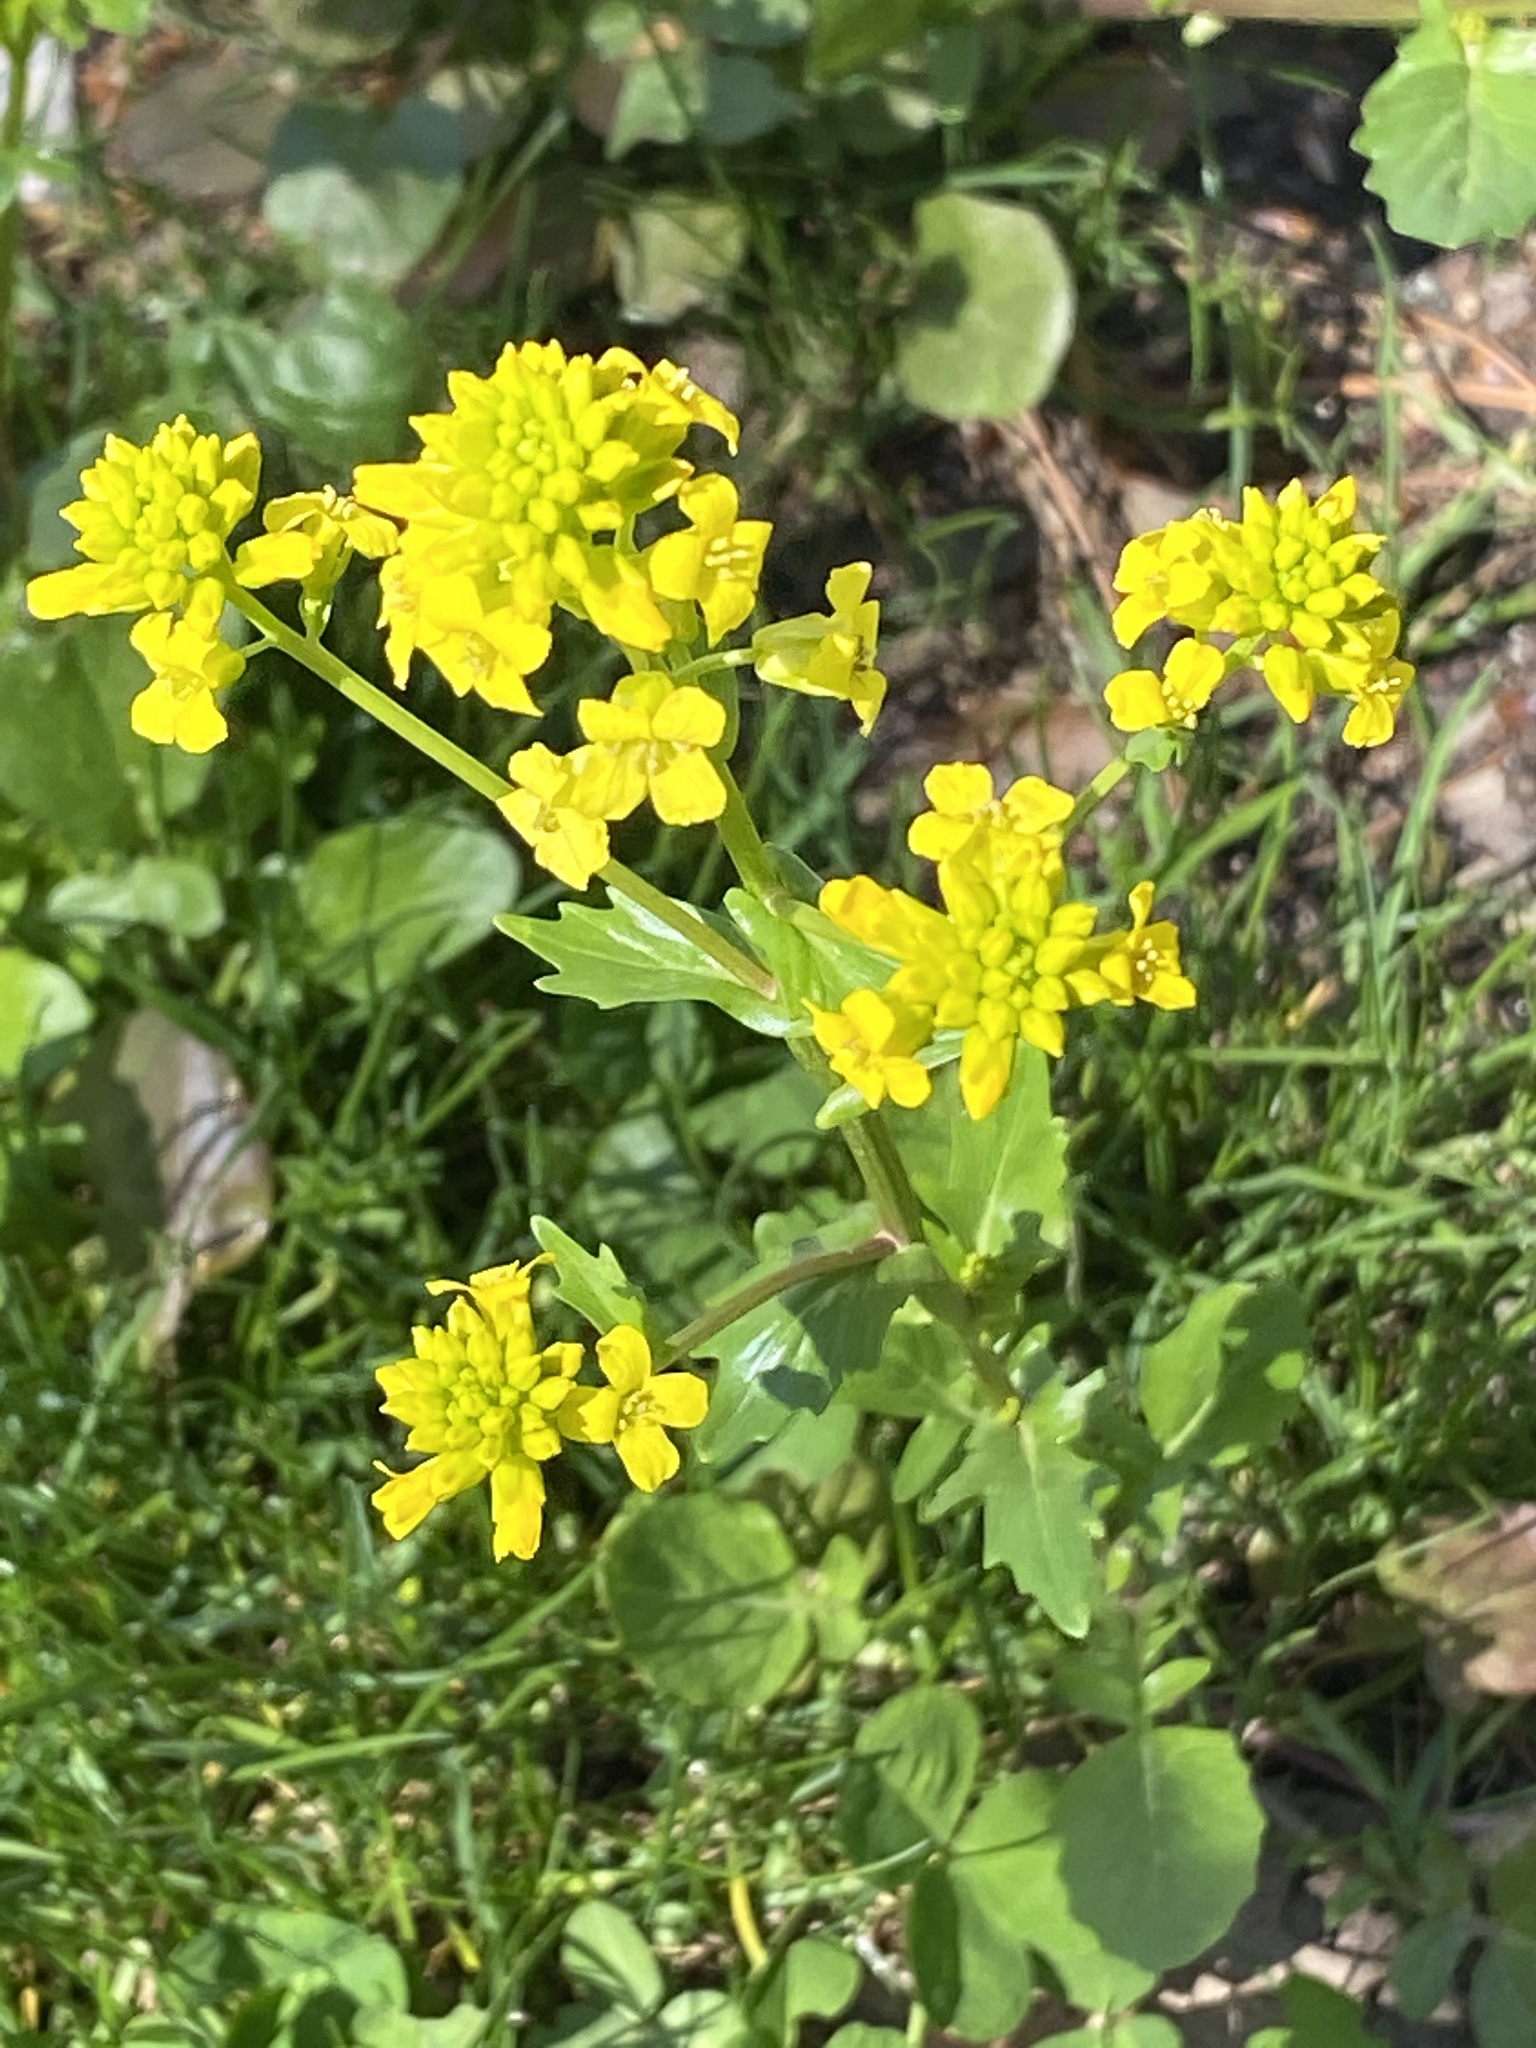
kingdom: Plantae
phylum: Tracheophyta
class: Magnoliopsida
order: Brassicales
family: Brassicaceae
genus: Barbarea
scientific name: Barbarea vulgaris
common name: Cressy-greens
